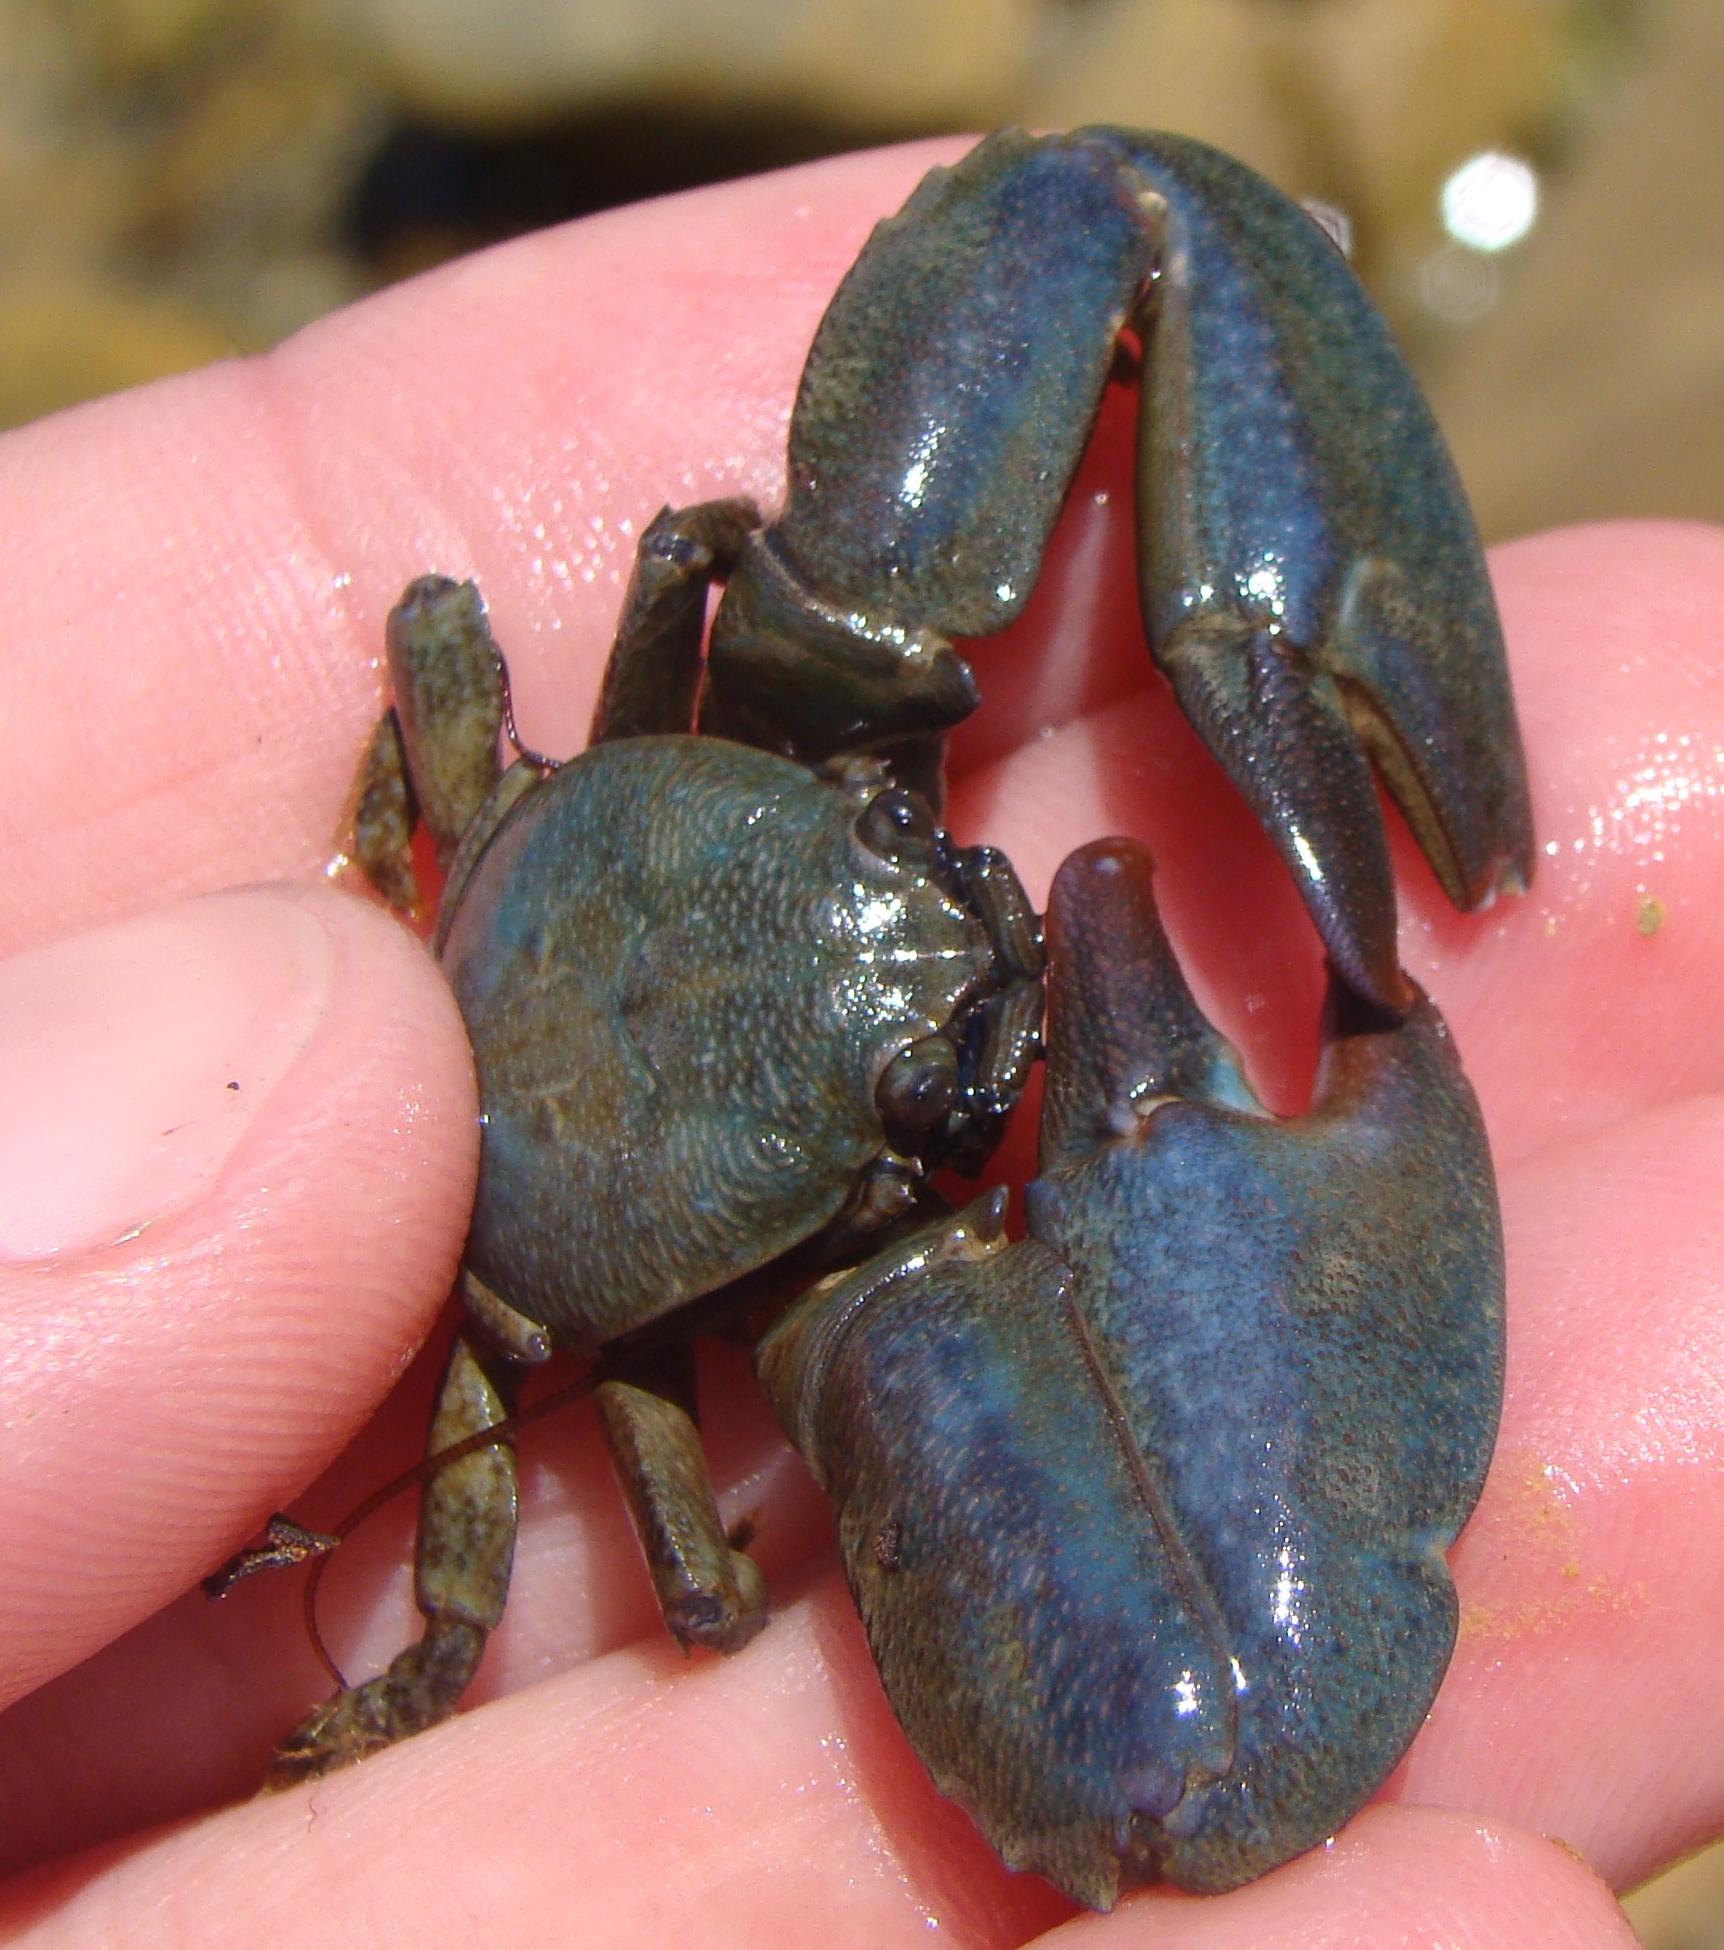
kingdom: Animalia
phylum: Arthropoda
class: Malacostraca
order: Decapoda
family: Porcellanidae
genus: Petrolisthes
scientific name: Petrolisthes elongatus
